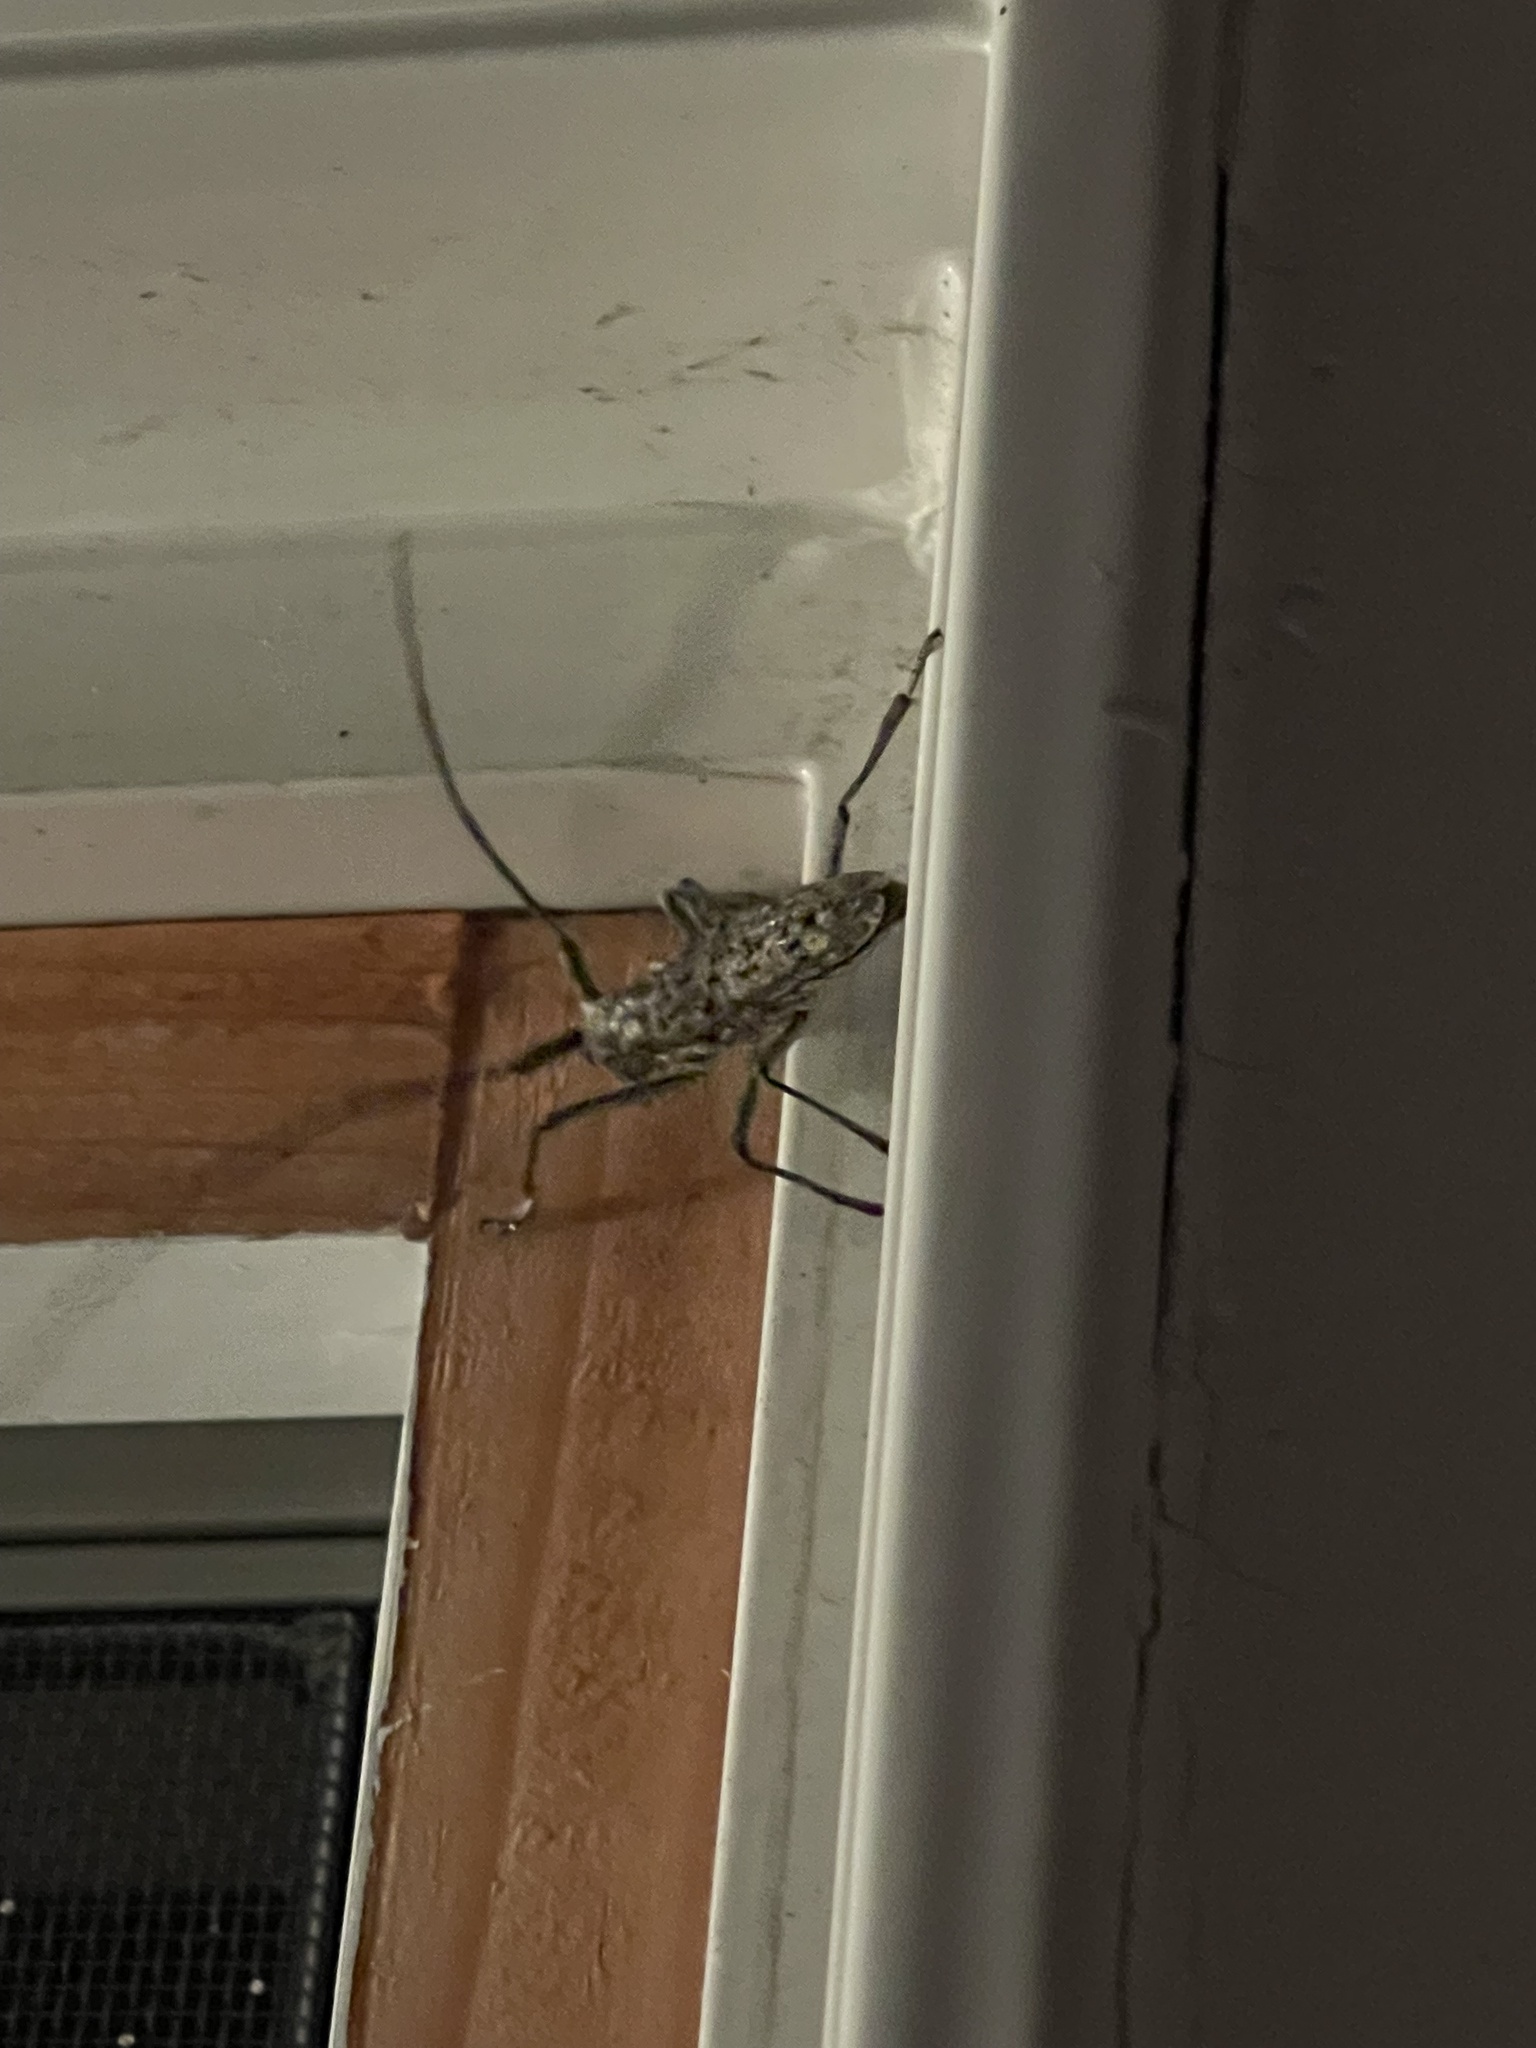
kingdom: Animalia
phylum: Arthropoda
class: Insecta
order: Coleoptera
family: Cerambycidae
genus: Monochamus
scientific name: Monochamus notatus
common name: Northeastern pine sawyer beetle
